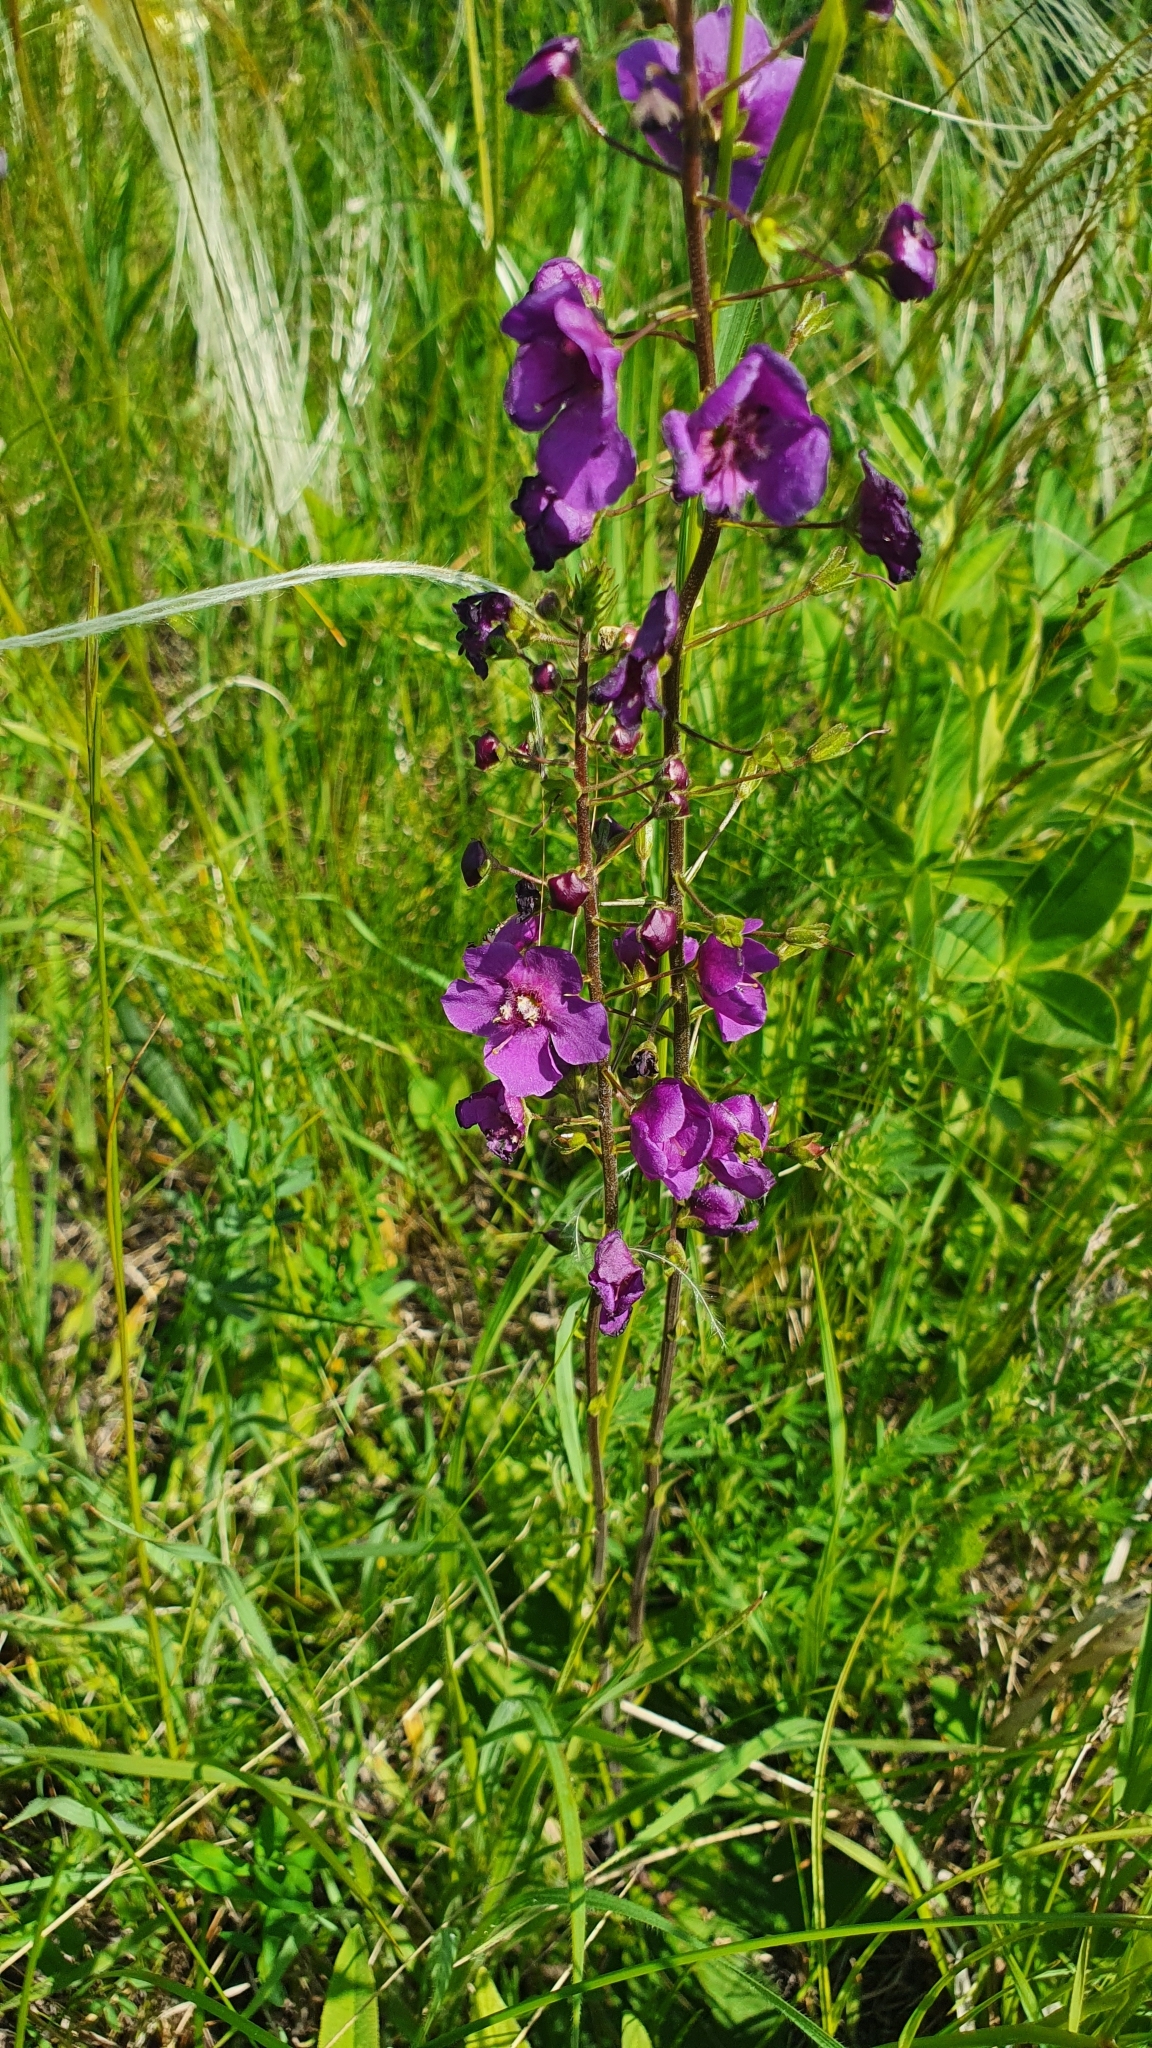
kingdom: Plantae
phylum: Tracheophyta
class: Magnoliopsida
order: Lamiales
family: Scrophulariaceae
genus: Verbascum
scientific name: Verbascum phoeniceum
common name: Purple mullein
